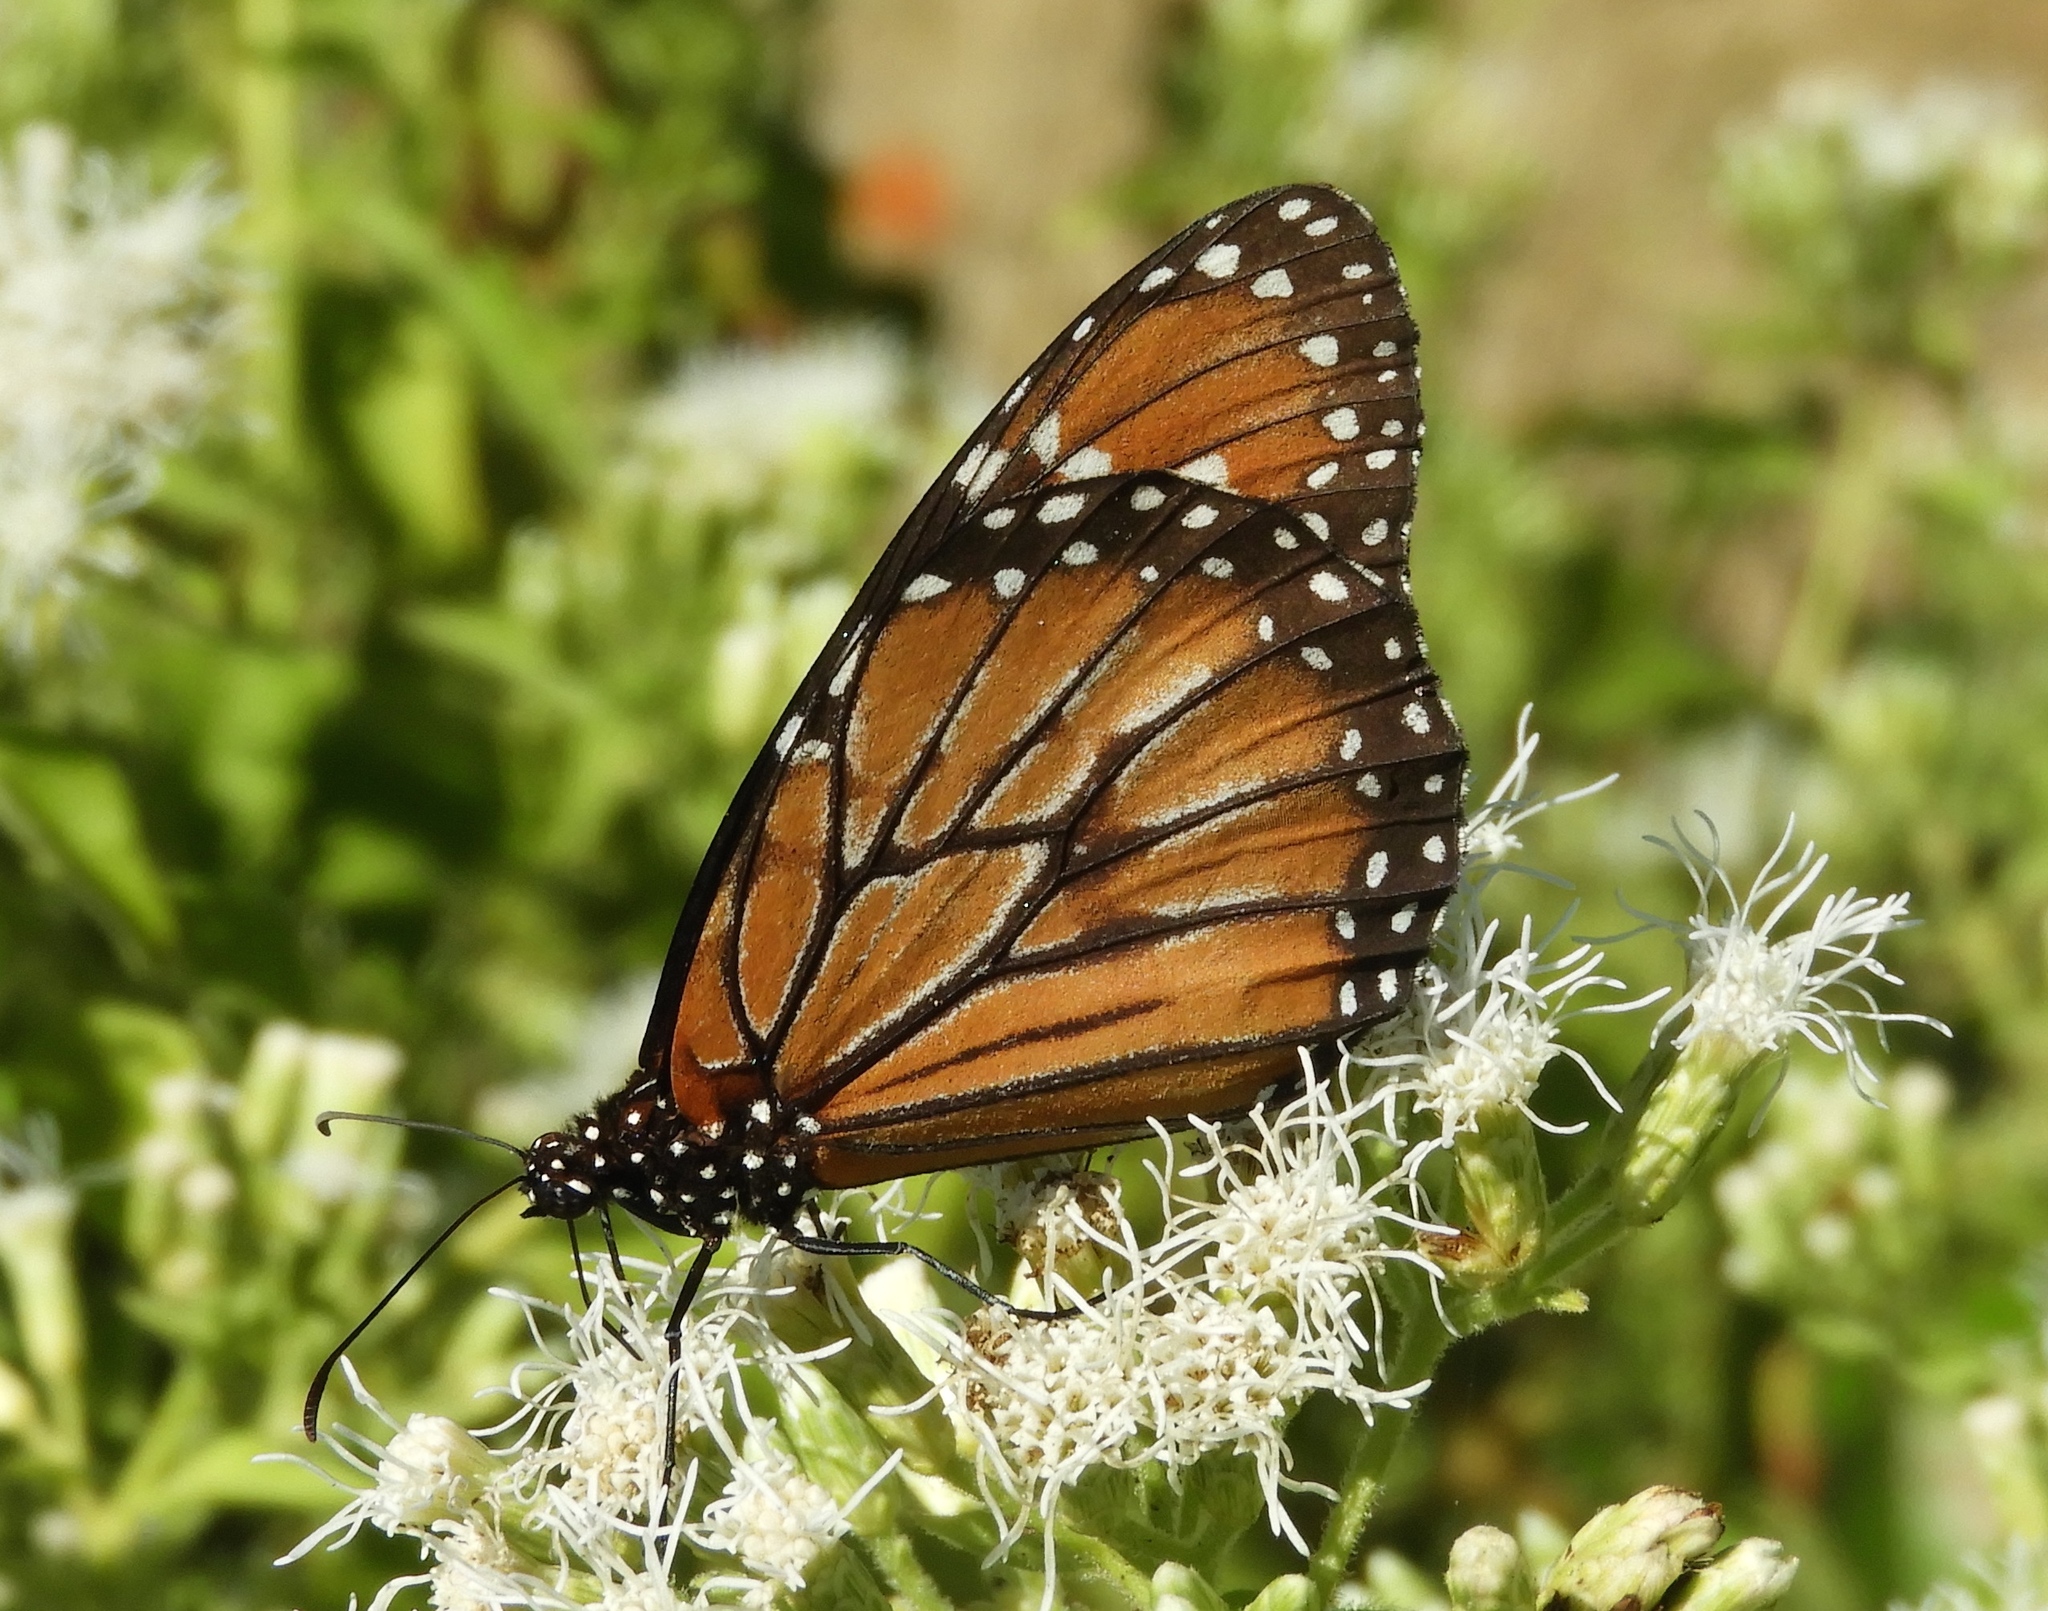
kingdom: Animalia
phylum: Arthropoda
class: Insecta
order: Lepidoptera
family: Nymphalidae
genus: Danaus
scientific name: Danaus eresimus
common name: Soldier
